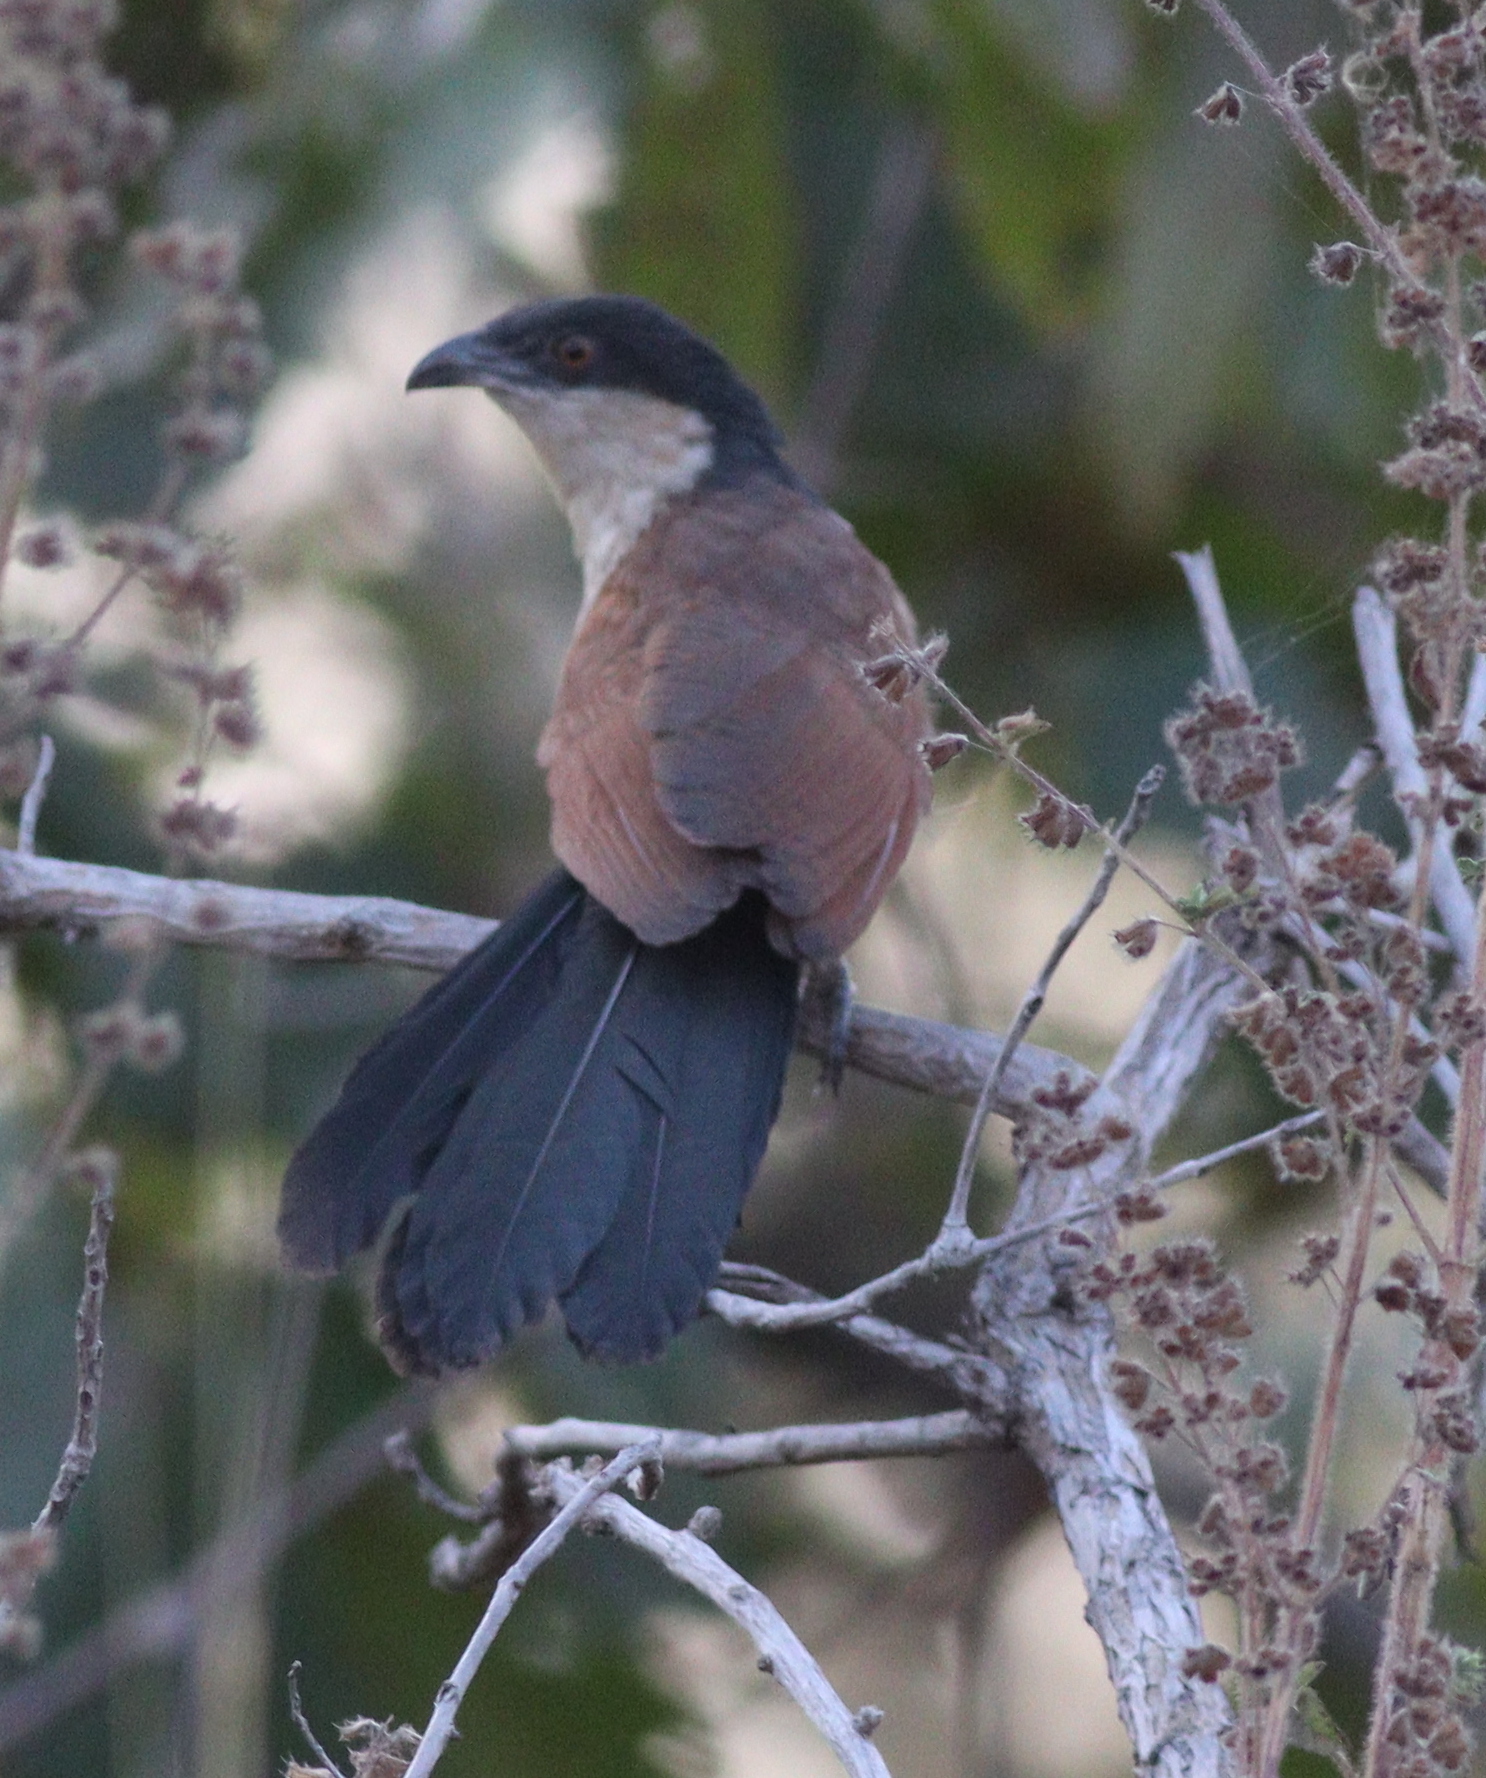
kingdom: Animalia
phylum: Chordata
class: Aves
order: Cuculiformes
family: Cuculidae
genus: Centropus
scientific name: Centropus senegalensis
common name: Senegal coucal
